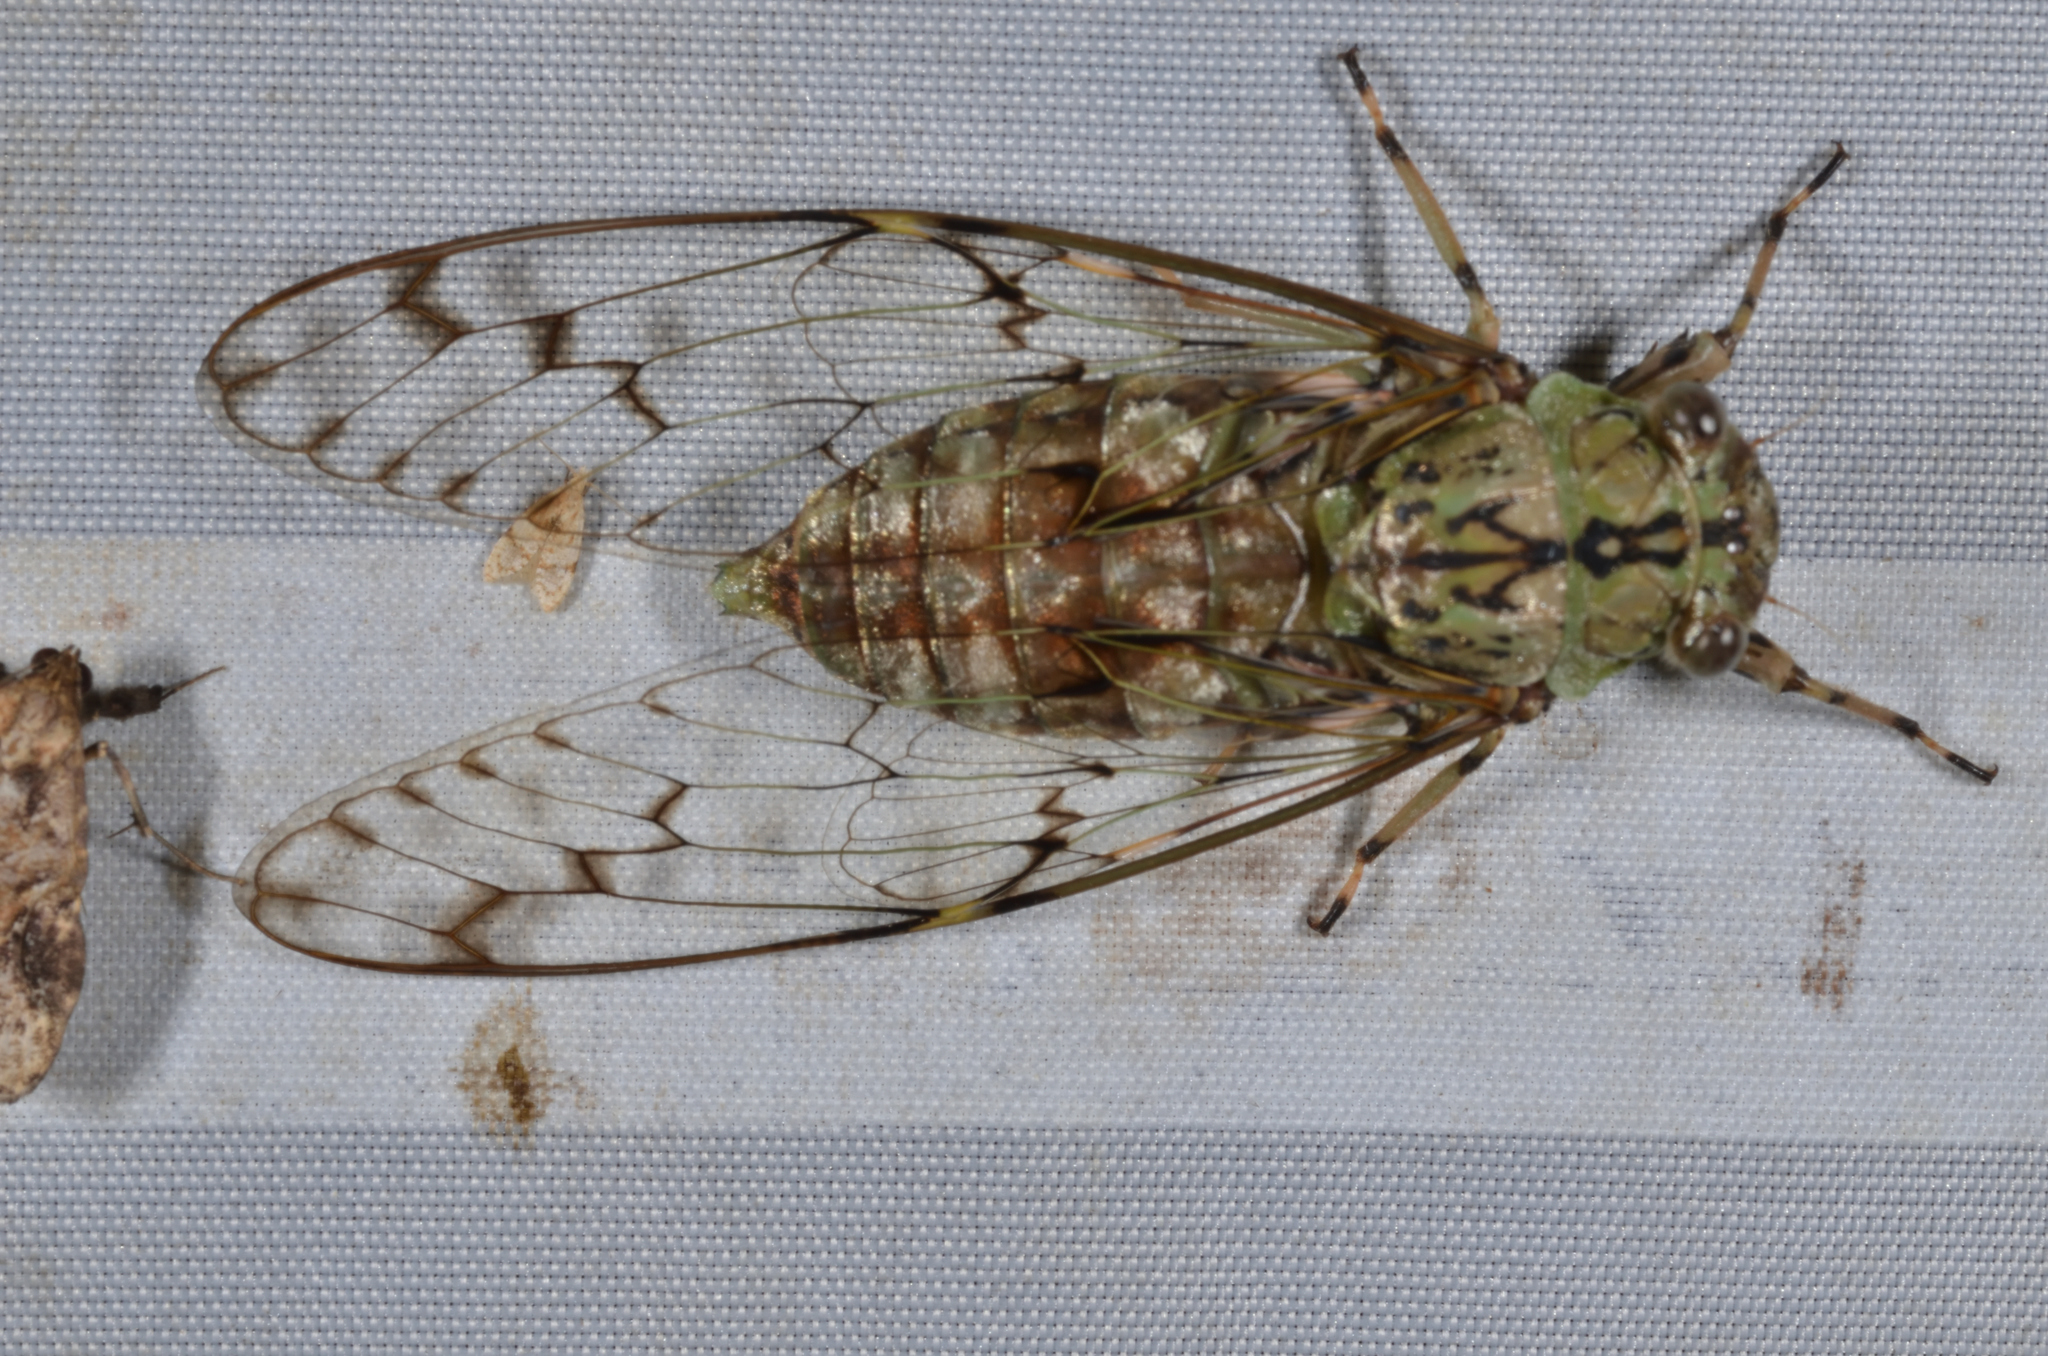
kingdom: Animalia
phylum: Arthropoda
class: Insecta
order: Hemiptera
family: Cicadidae
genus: Semia
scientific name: Semia albusequi
